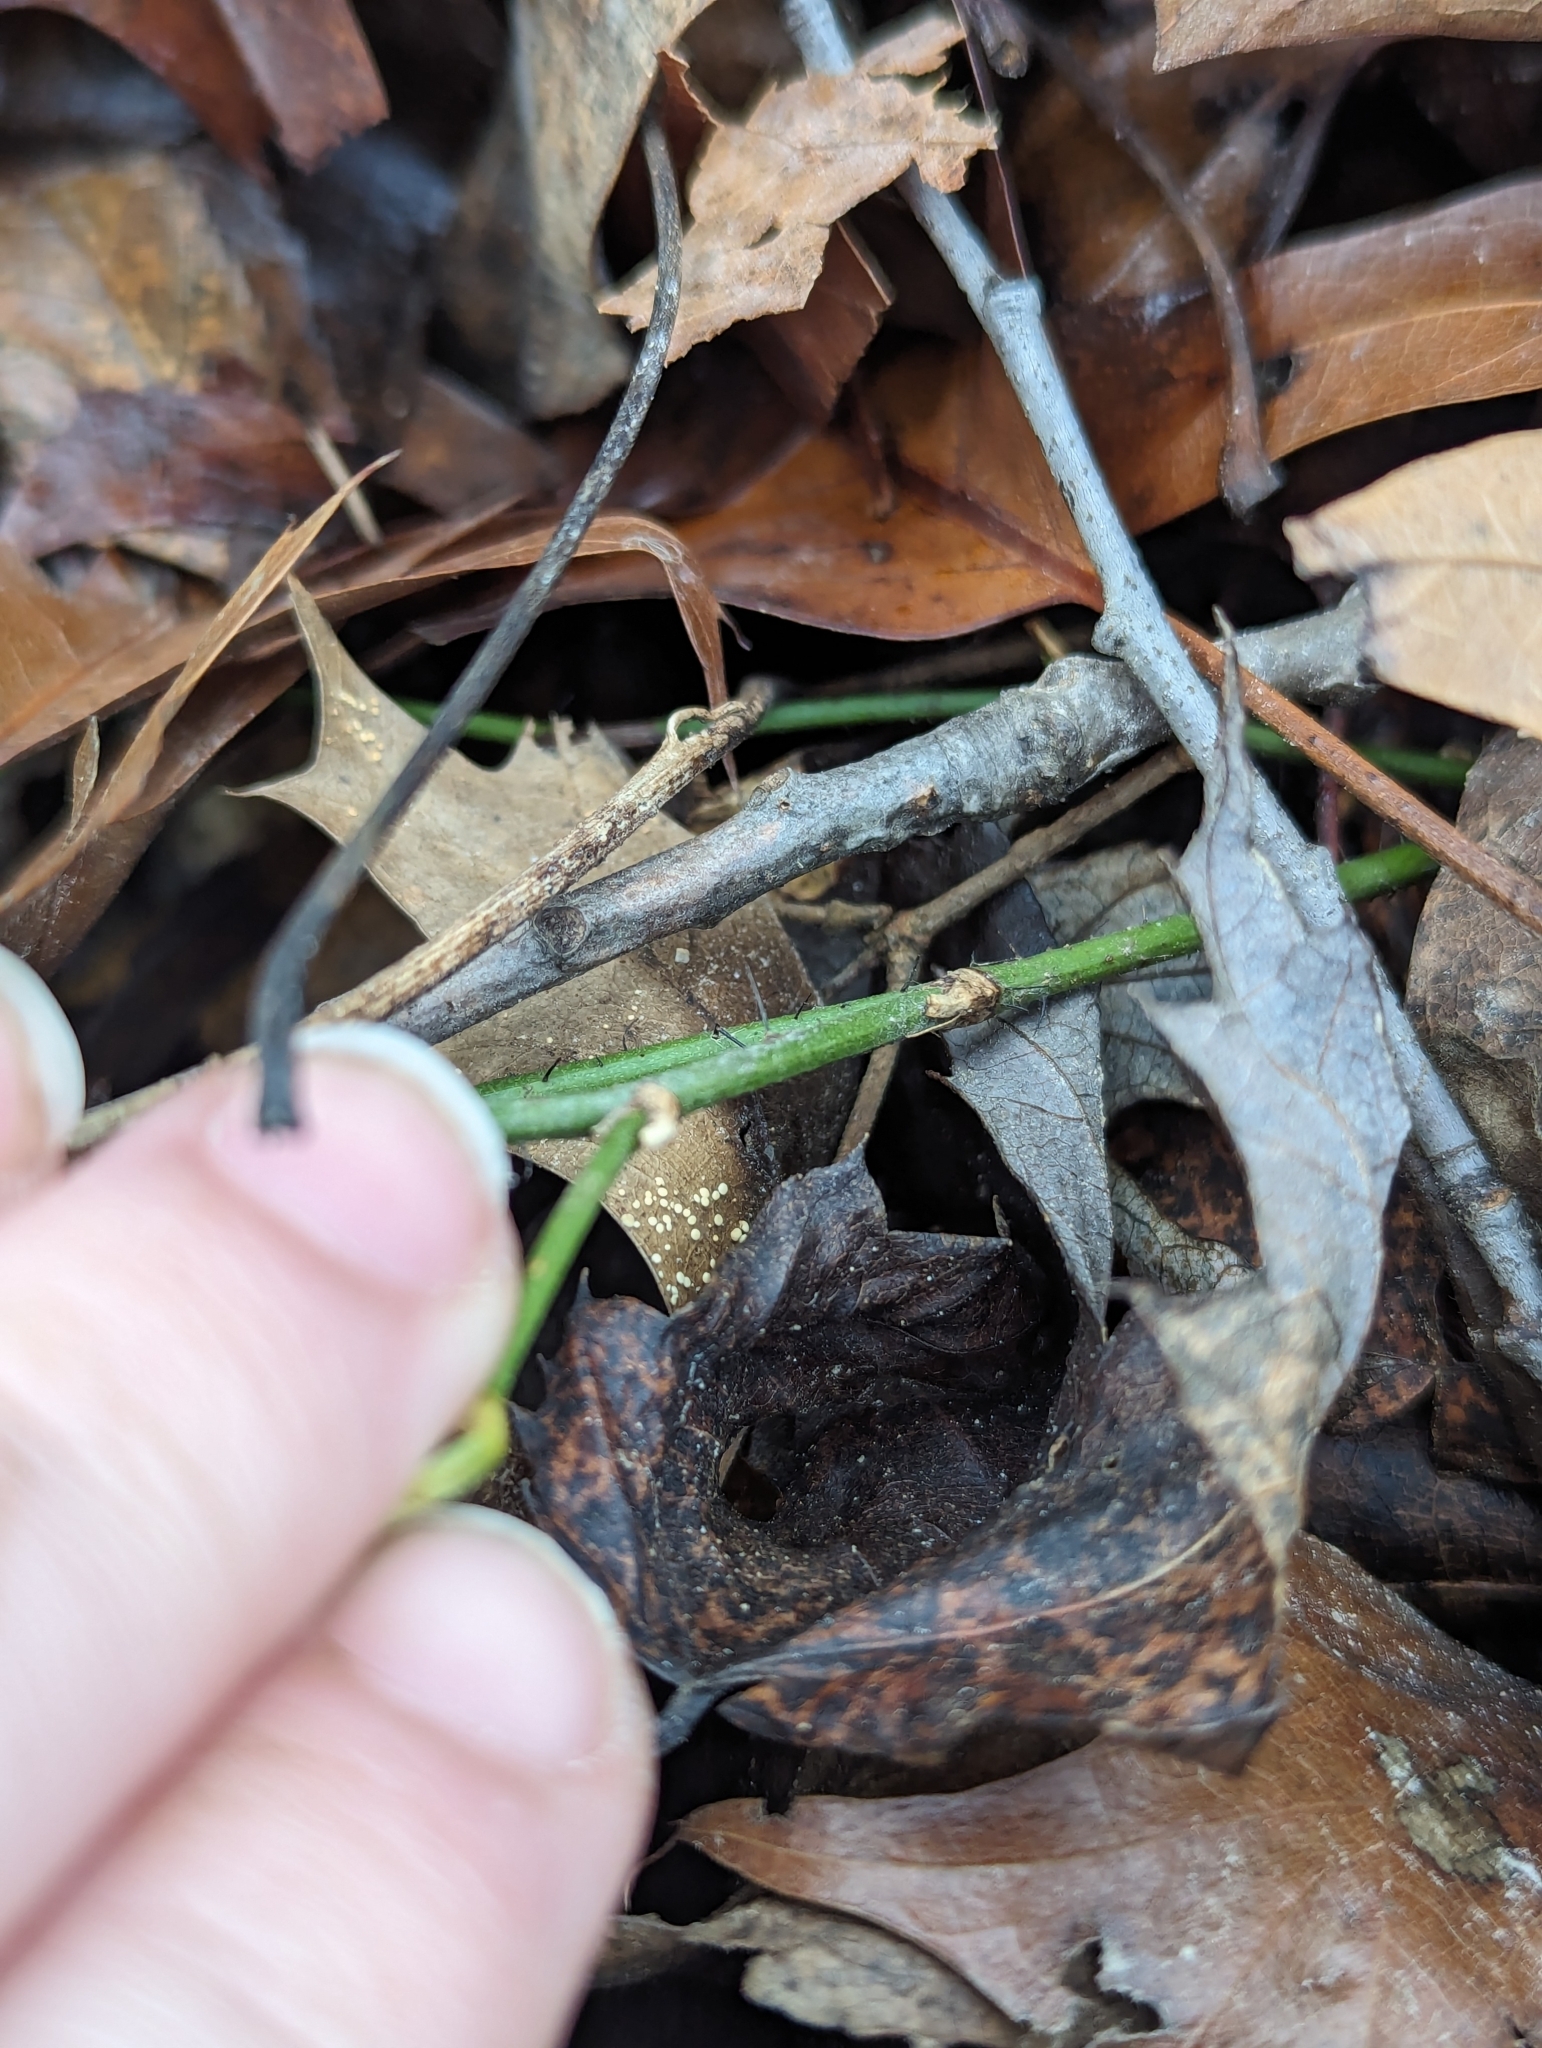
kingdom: Plantae
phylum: Tracheophyta
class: Liliopsida
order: Liliales
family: Smilacaceae
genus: Smilax
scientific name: Smilax tamnoides
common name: Hellfetter
